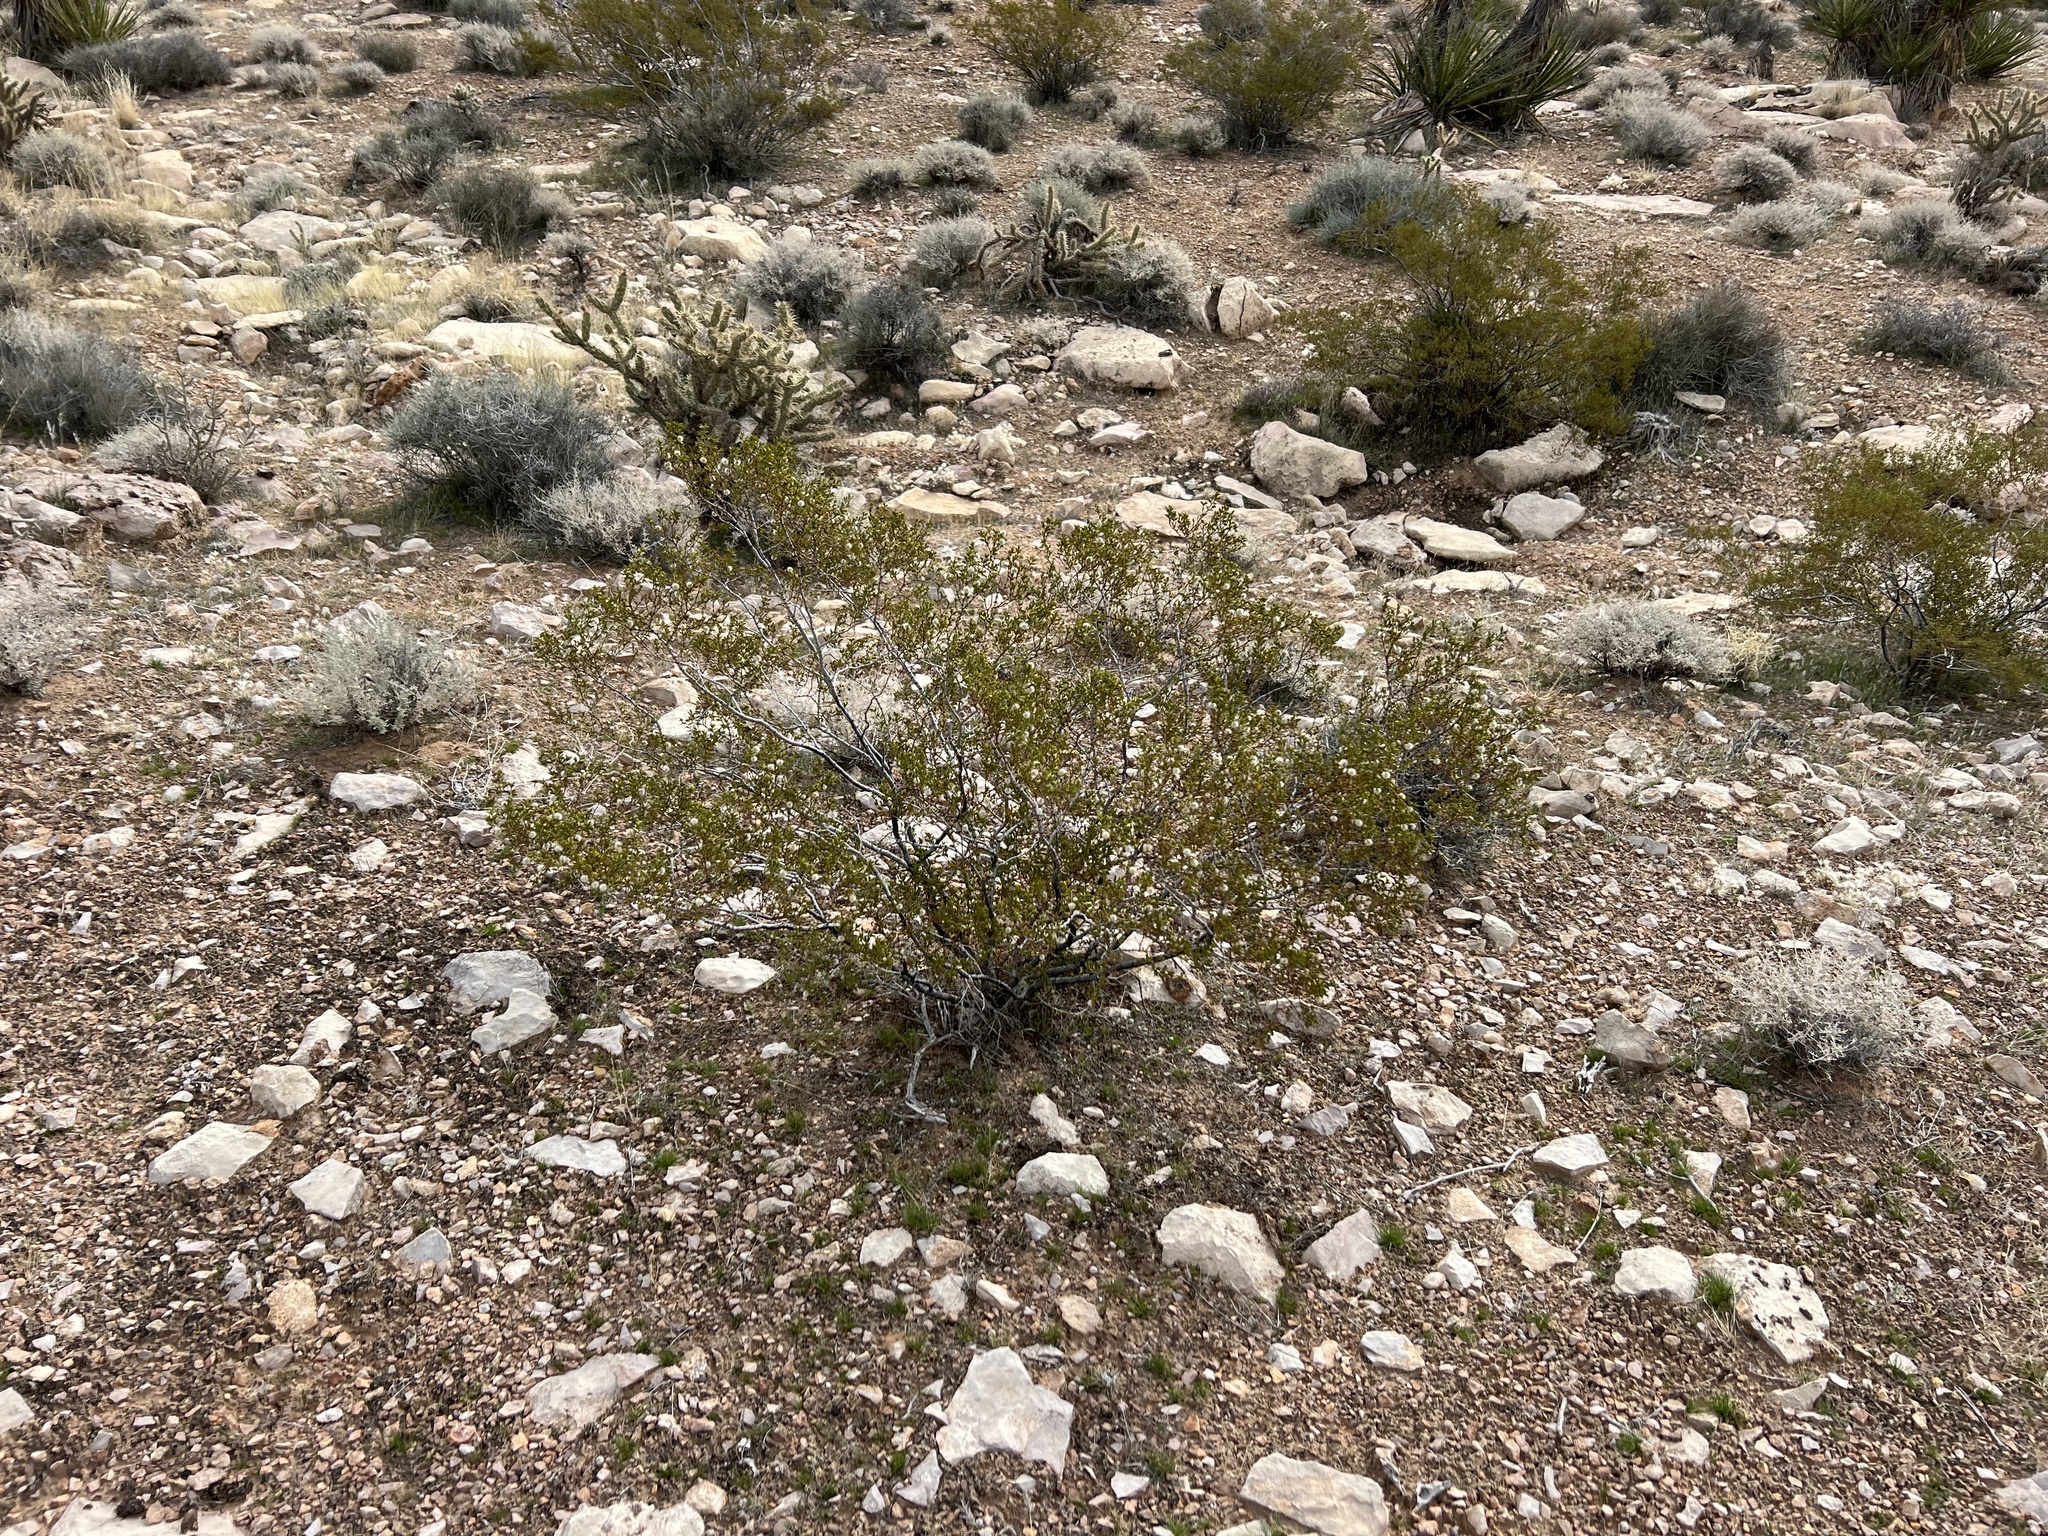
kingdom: Plantae
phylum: Tracheophyta
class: Magnoliopsida
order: Zygophyllales
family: Zygophyllaceae
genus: Larrea
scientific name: Larrea tridentata
